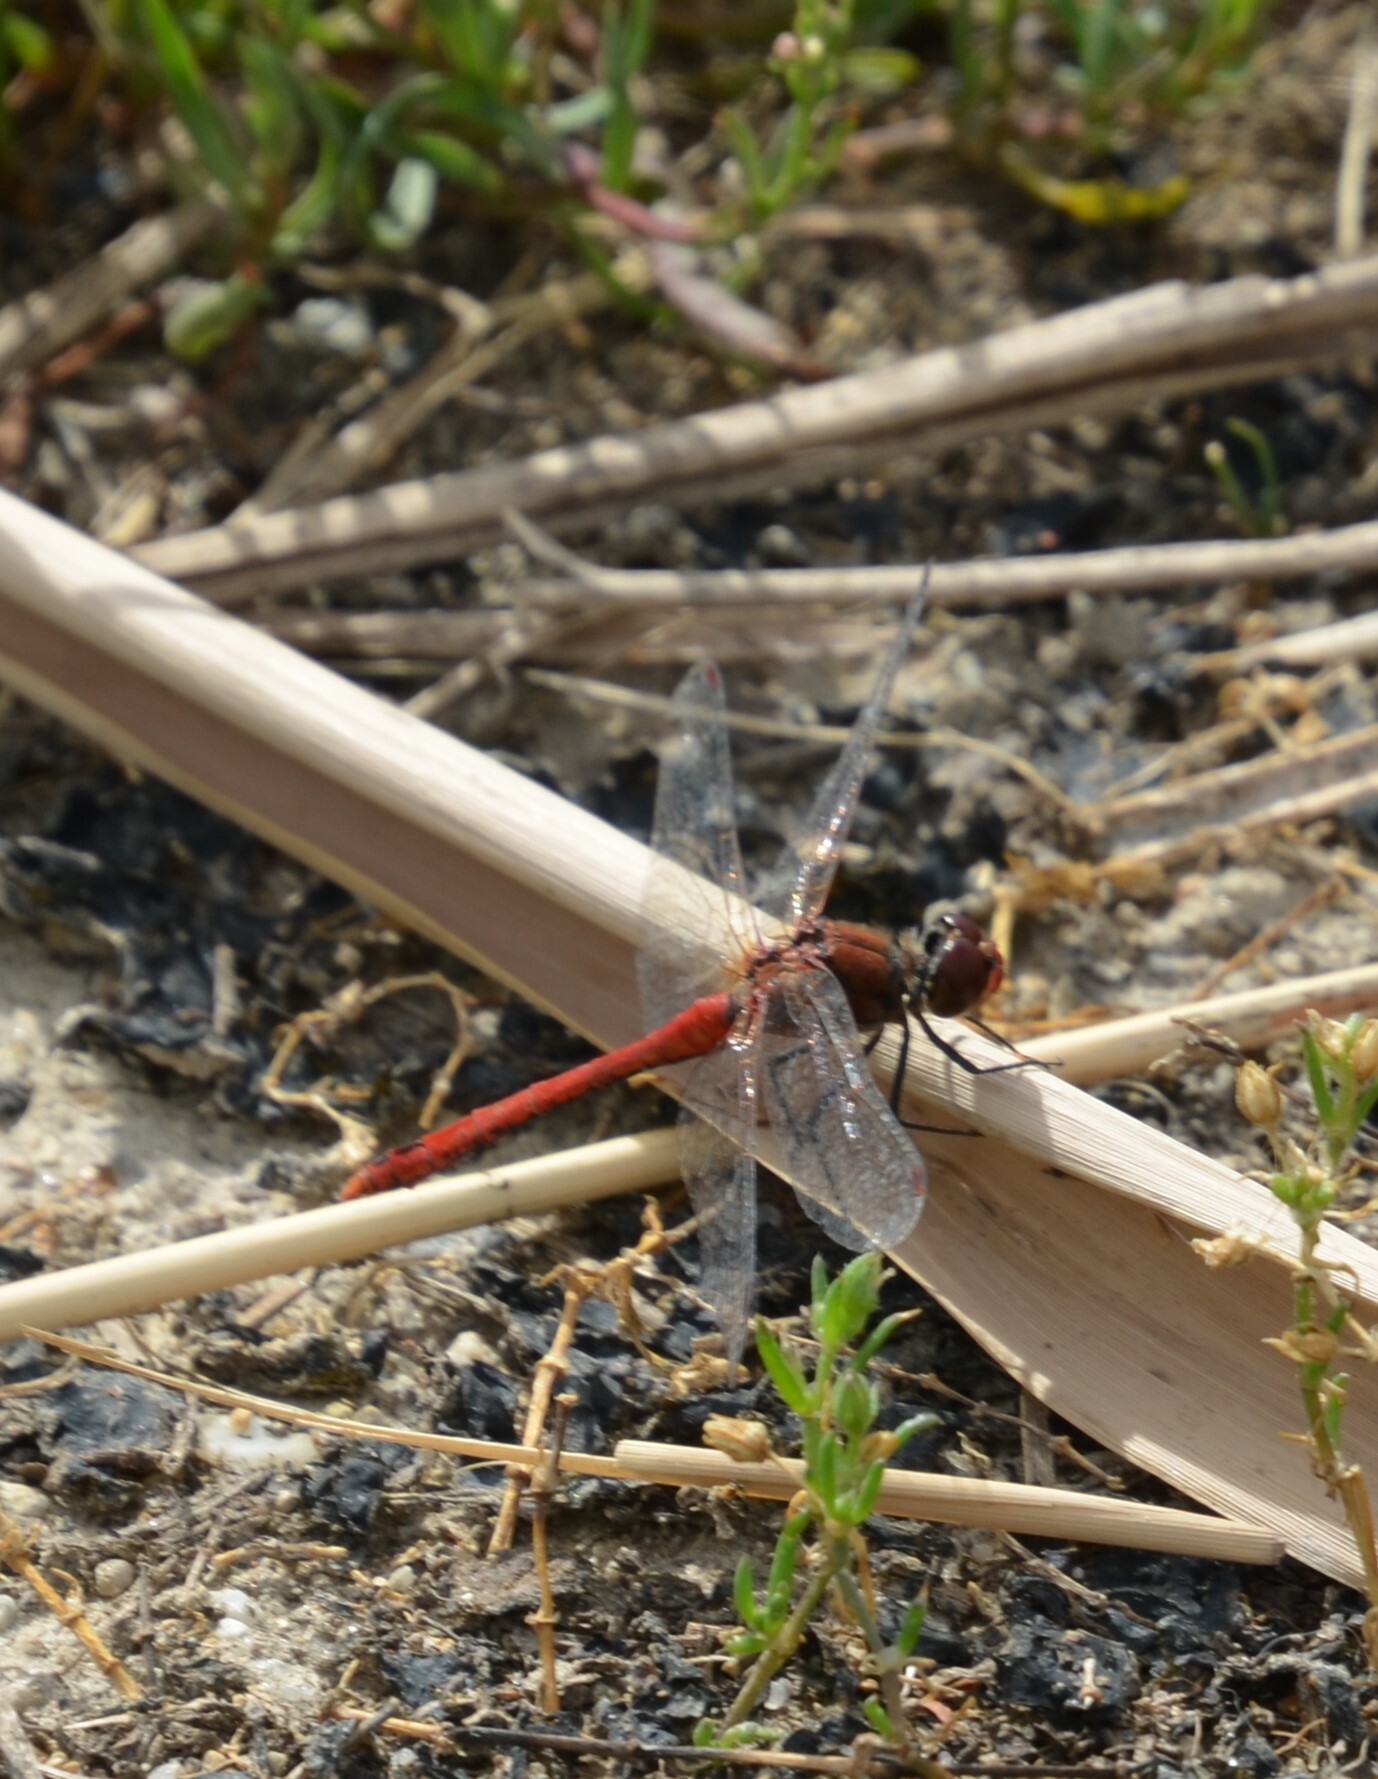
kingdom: Animalia
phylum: Arthropoda
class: Insecta
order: Odonata
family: Libellulidae
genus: Sympetrum
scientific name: Sympetrum sanguineum
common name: Ruddy darter
